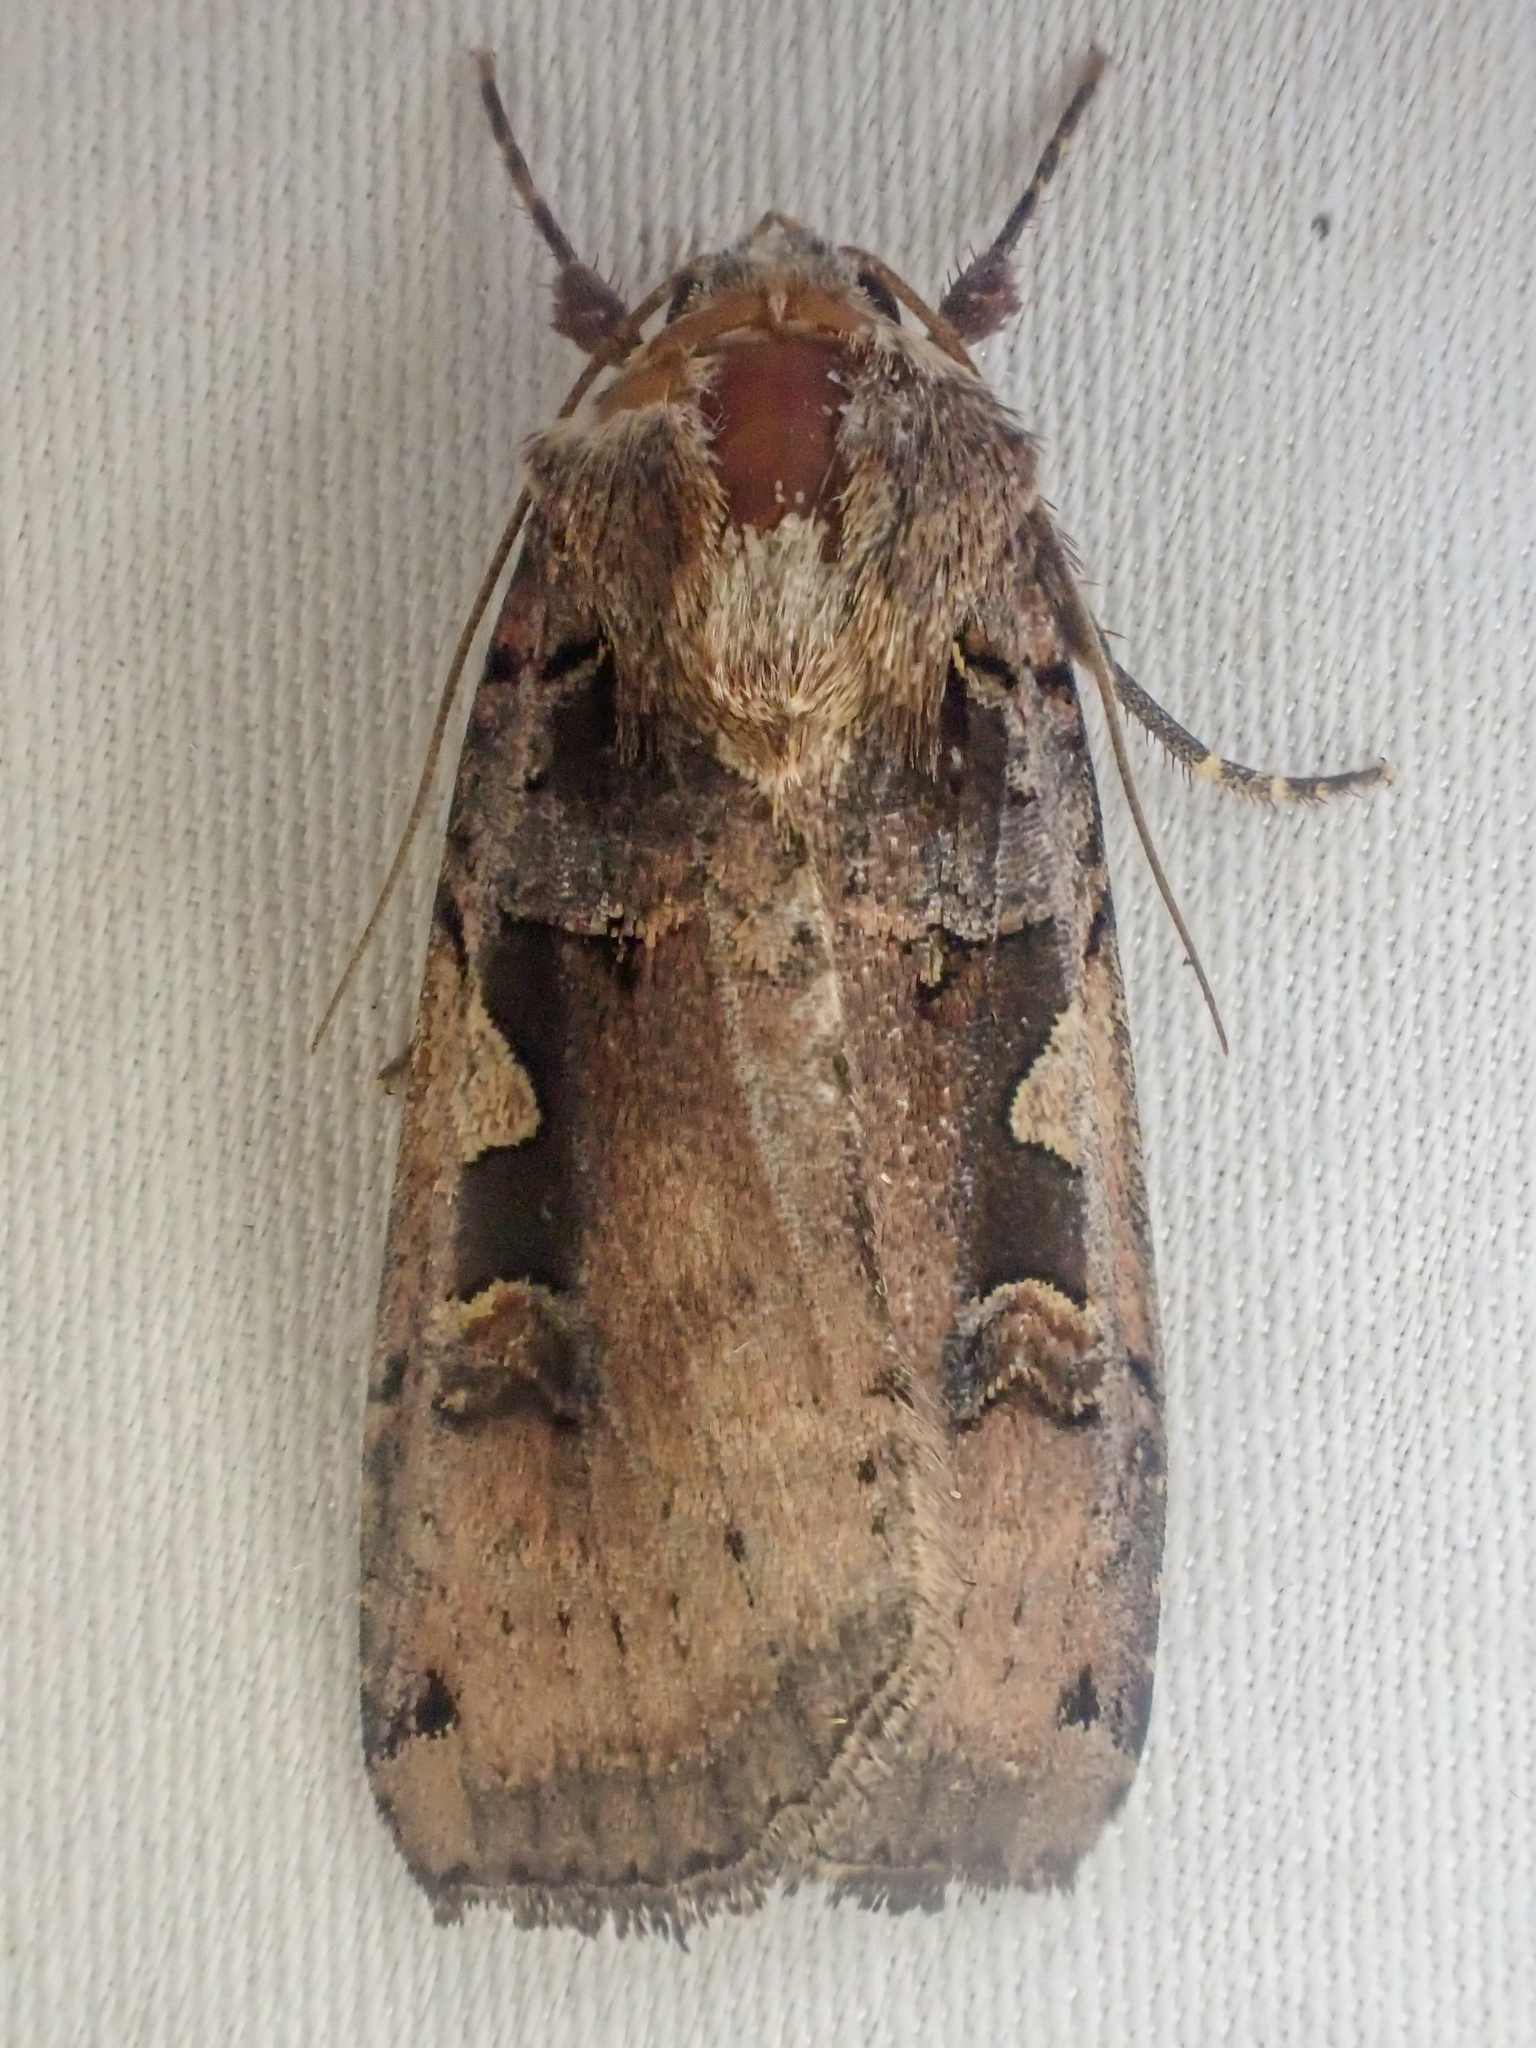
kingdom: Animalia
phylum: Arthropoda
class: Insecta
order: Lepidoptera
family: Noctuidae
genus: Xestia
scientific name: Xestia c-nigrum
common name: Setaceous hebrew character
